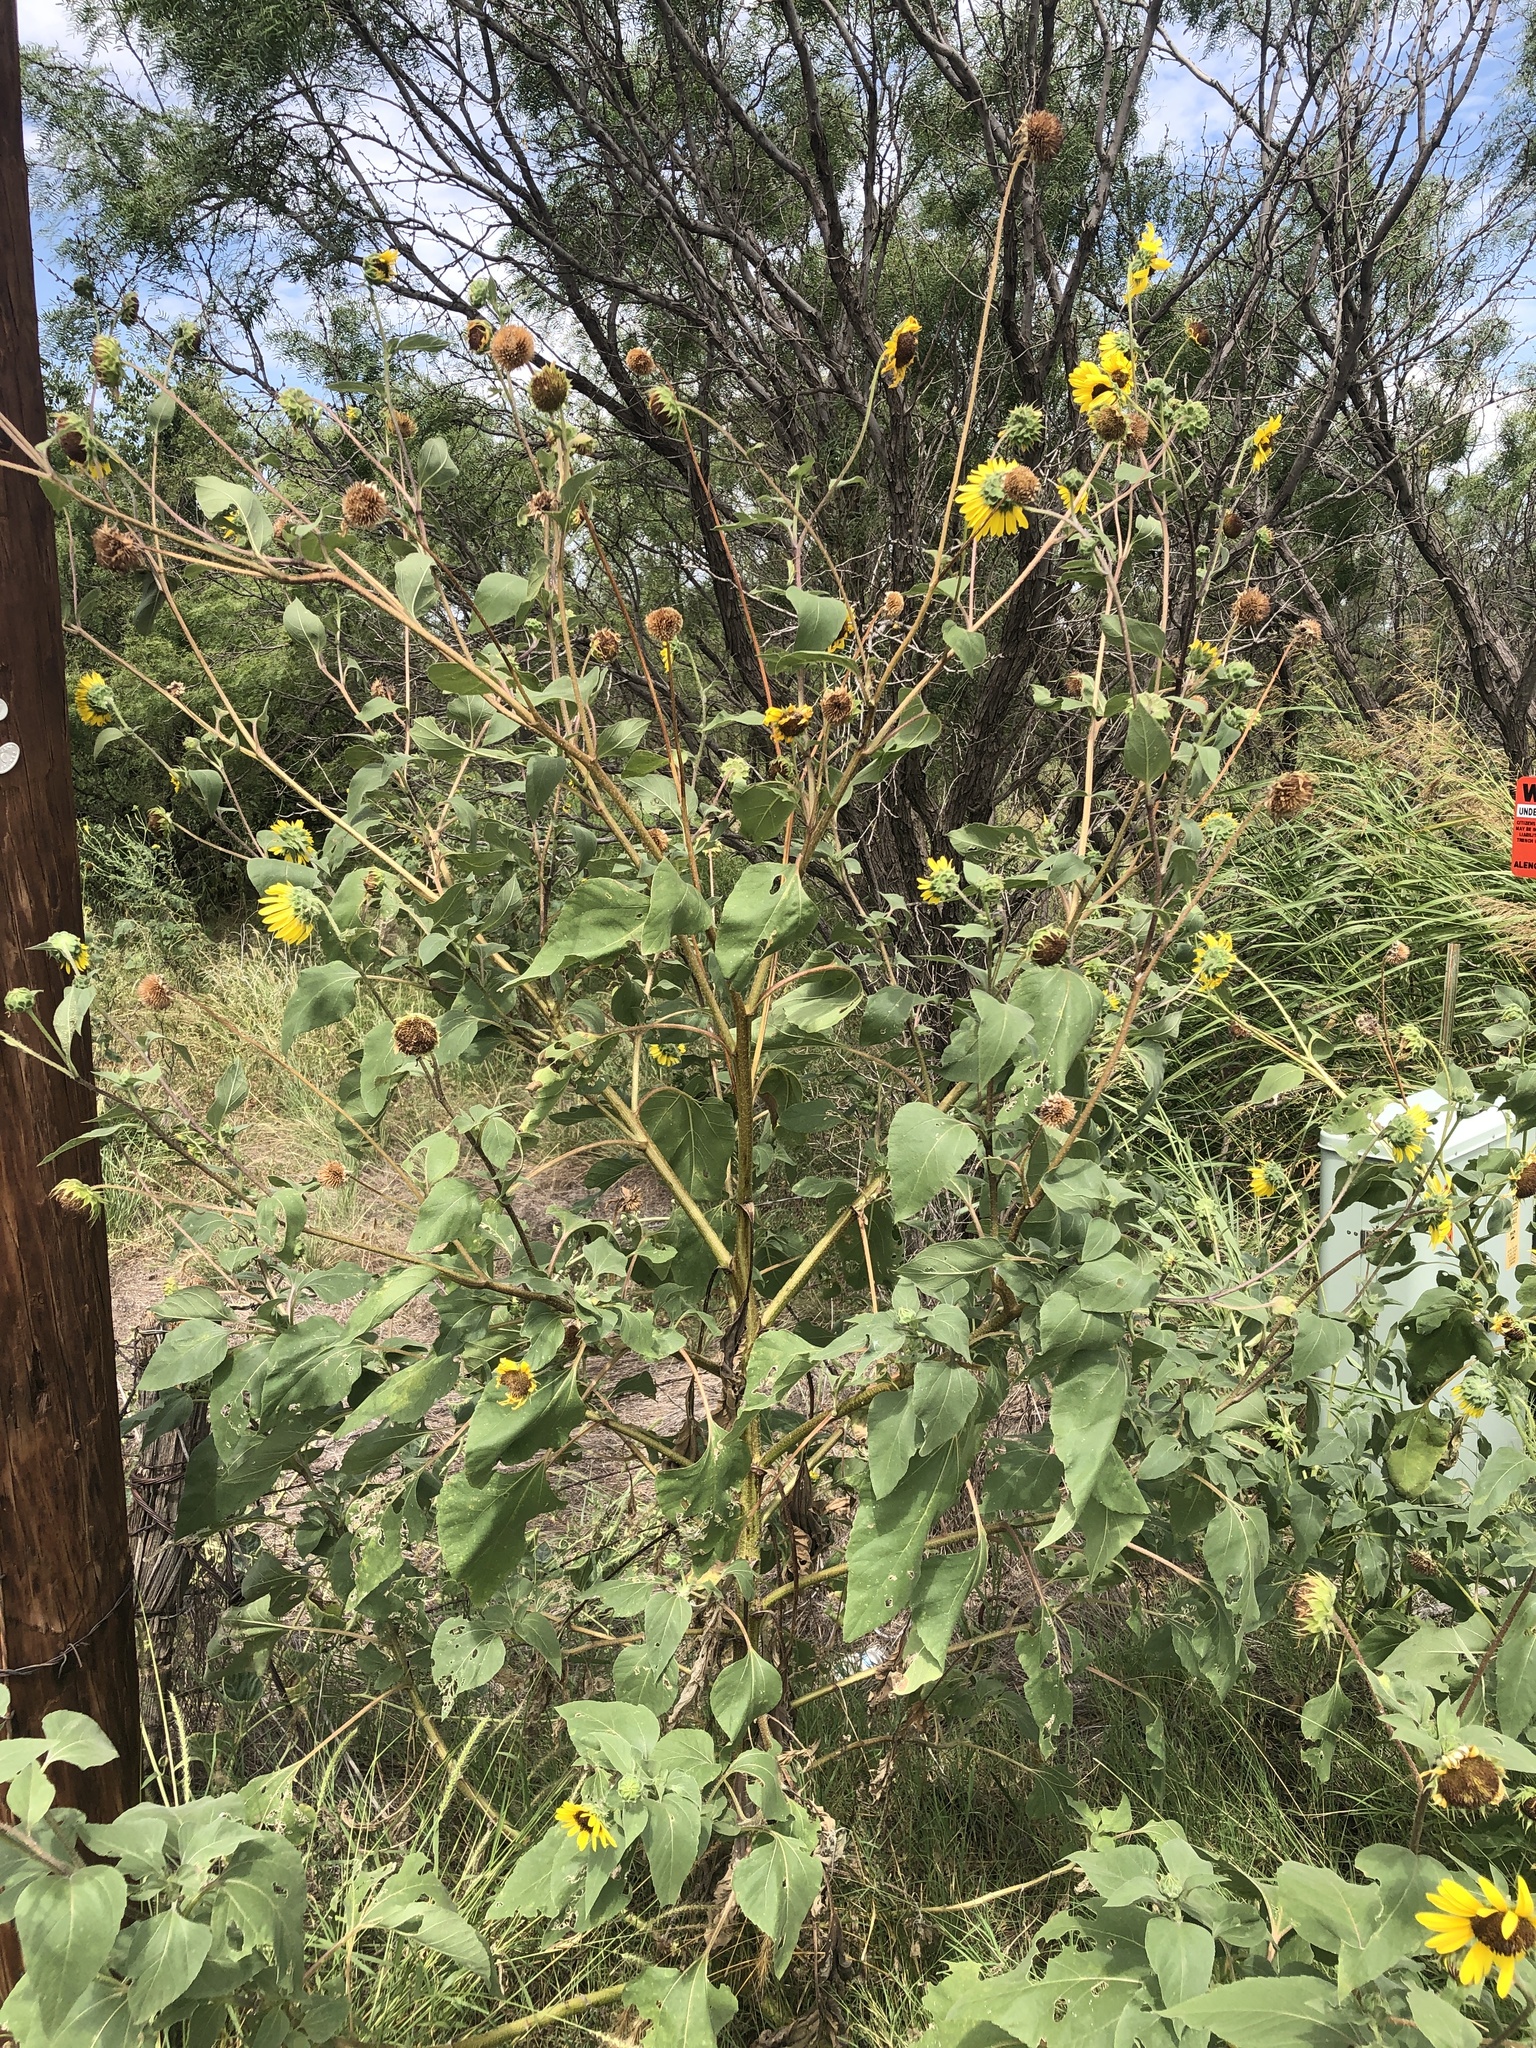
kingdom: Plantae
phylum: Tracheophyta
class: Magnoliopsida
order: Asterales
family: Asteraceae
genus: Helianthus
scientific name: Helianthus annuus
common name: Sunflower
